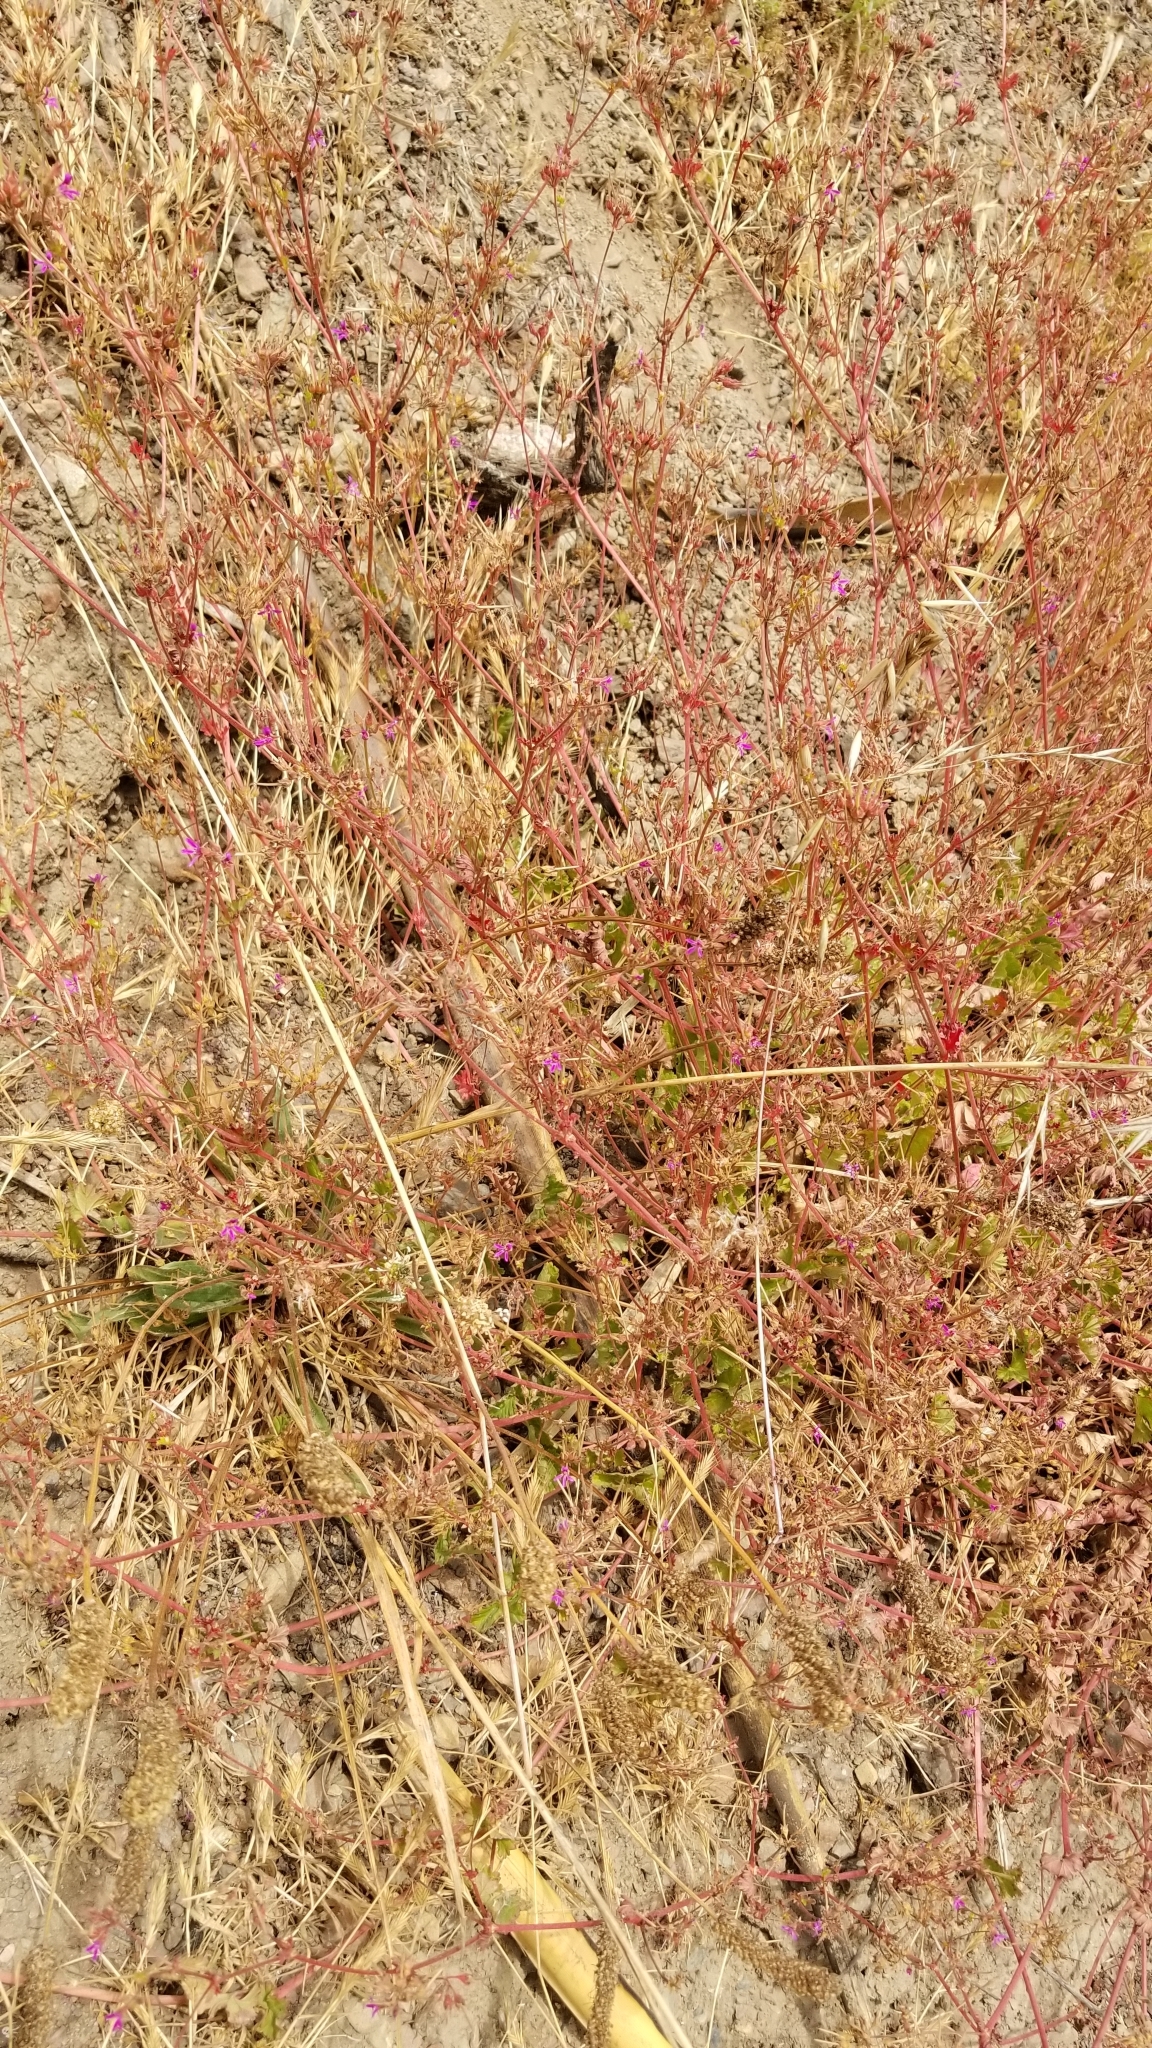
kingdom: Plantae
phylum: Tracheophyta
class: Magnoliopsida
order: Geraniales
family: Geraniaceae
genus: Pelargonium
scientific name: Pelargonium grossularioides
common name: Gooseberry geranium
